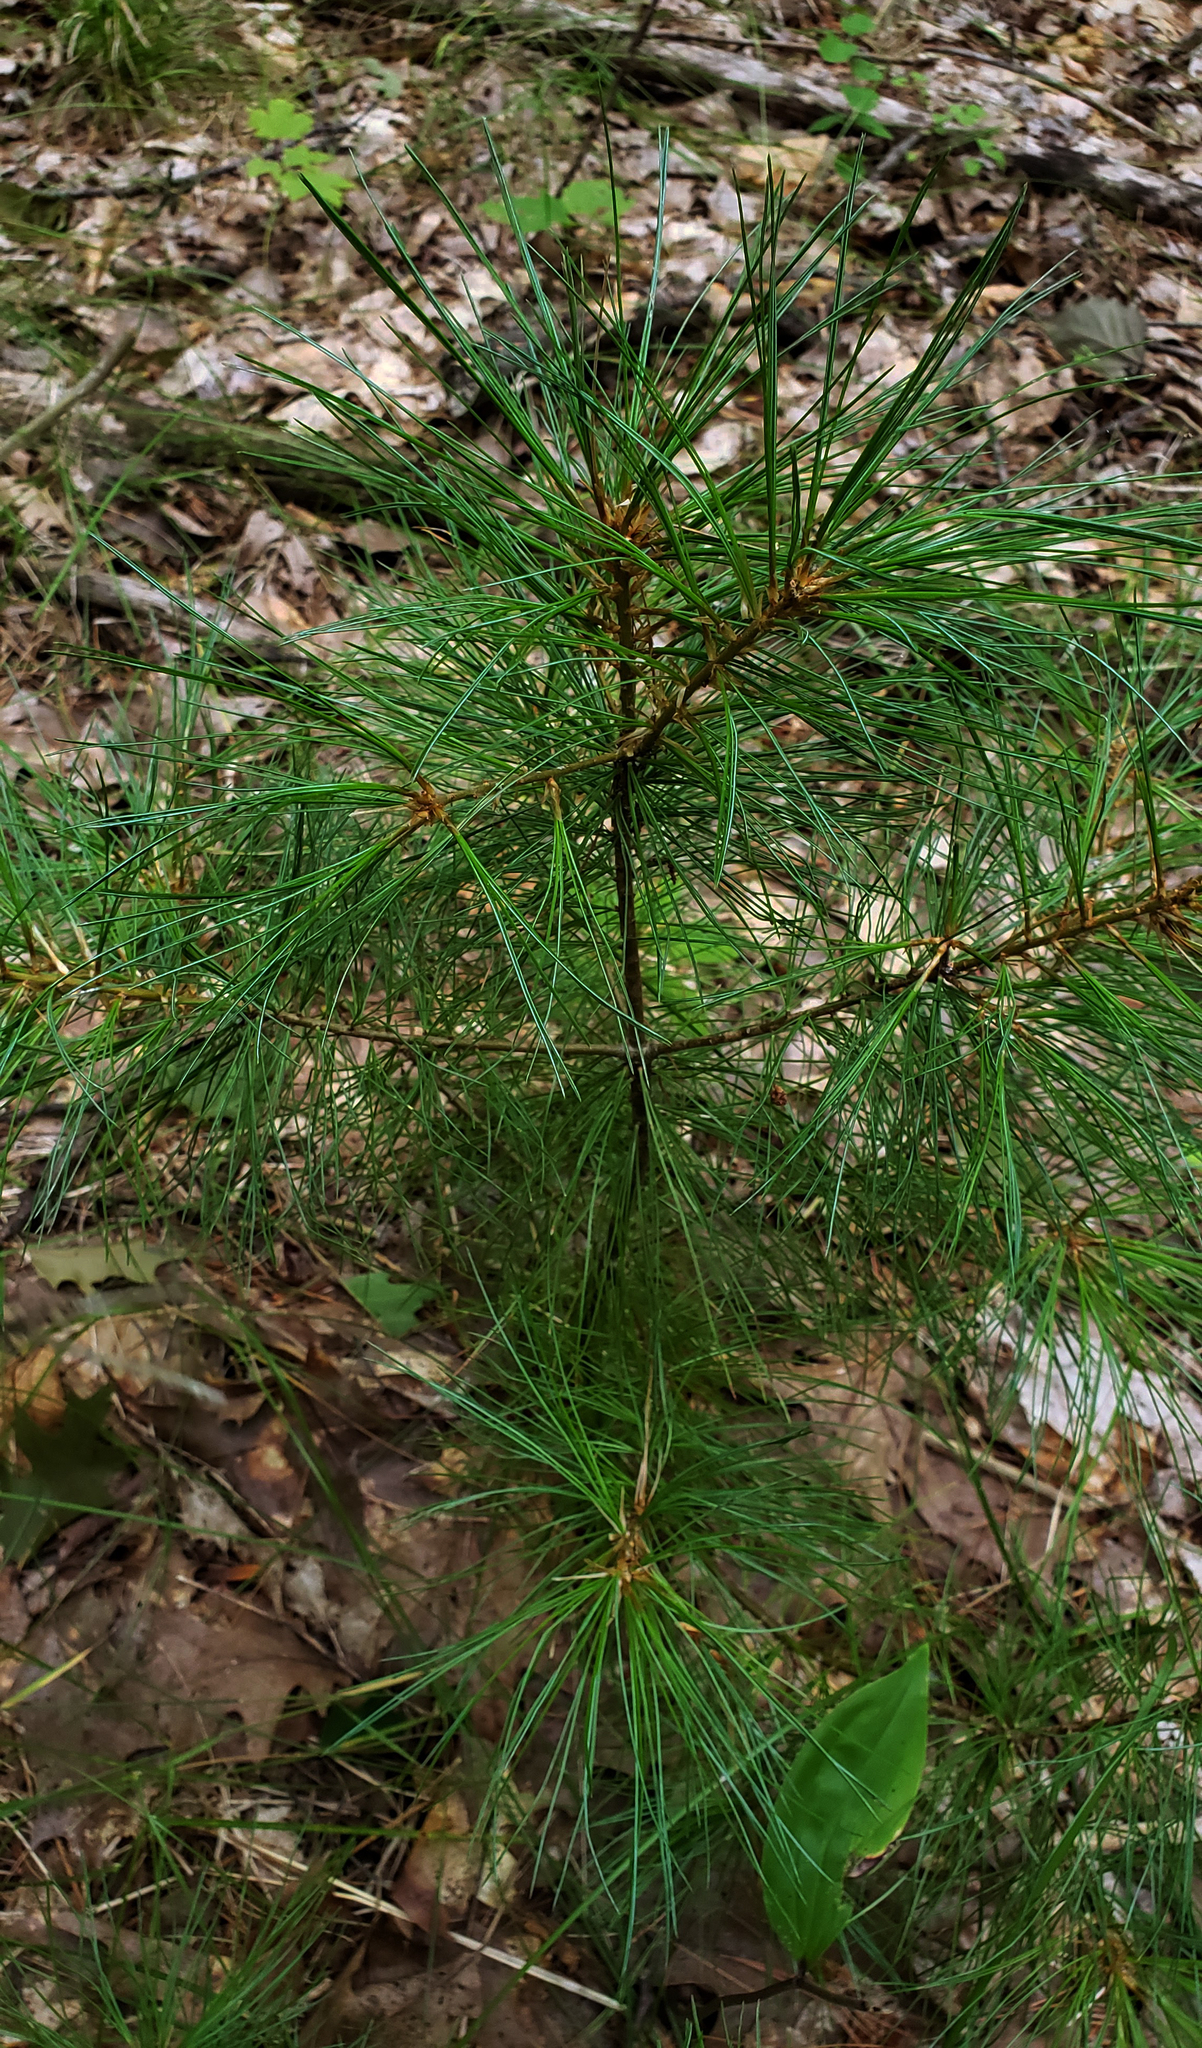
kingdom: Plantae
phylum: Tracheophyta
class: Pinopsida
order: Pinales
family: Pinaceae
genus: Pinus
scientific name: Pinus strobus
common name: Weymouth pine
